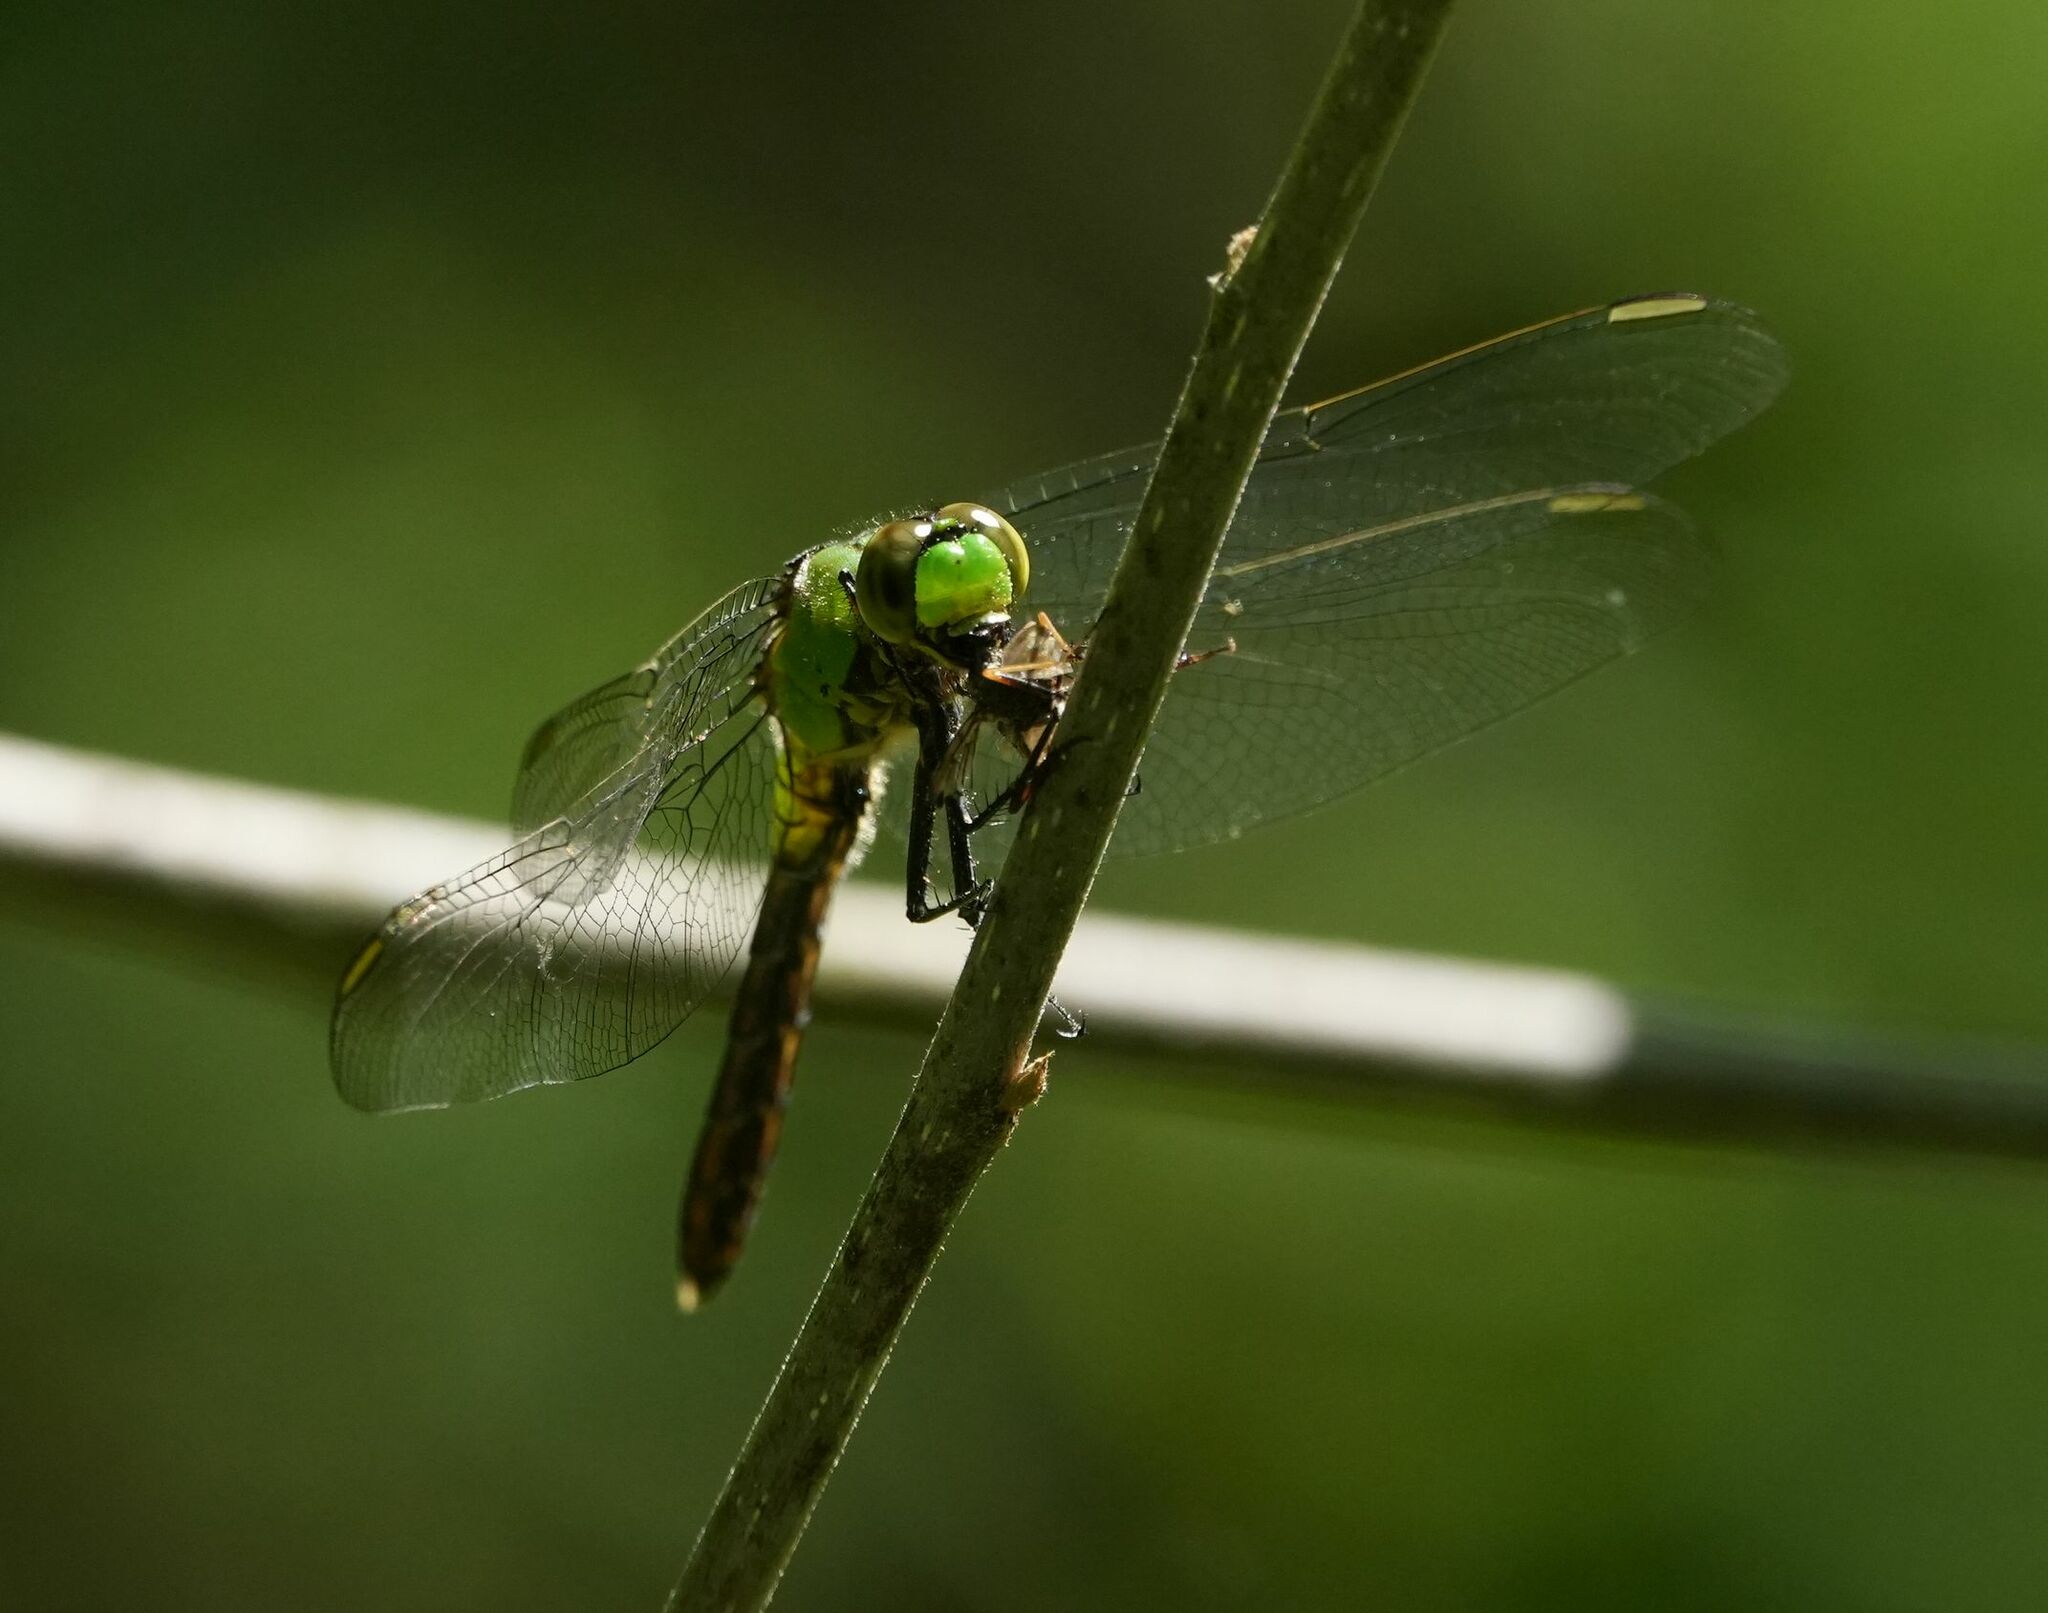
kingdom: Animalia
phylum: Arthropoda
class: Insecta
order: Odonata
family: Libellulidae
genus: Erythemis
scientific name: Erythemis simplicicollis
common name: Eastern pondhawk
